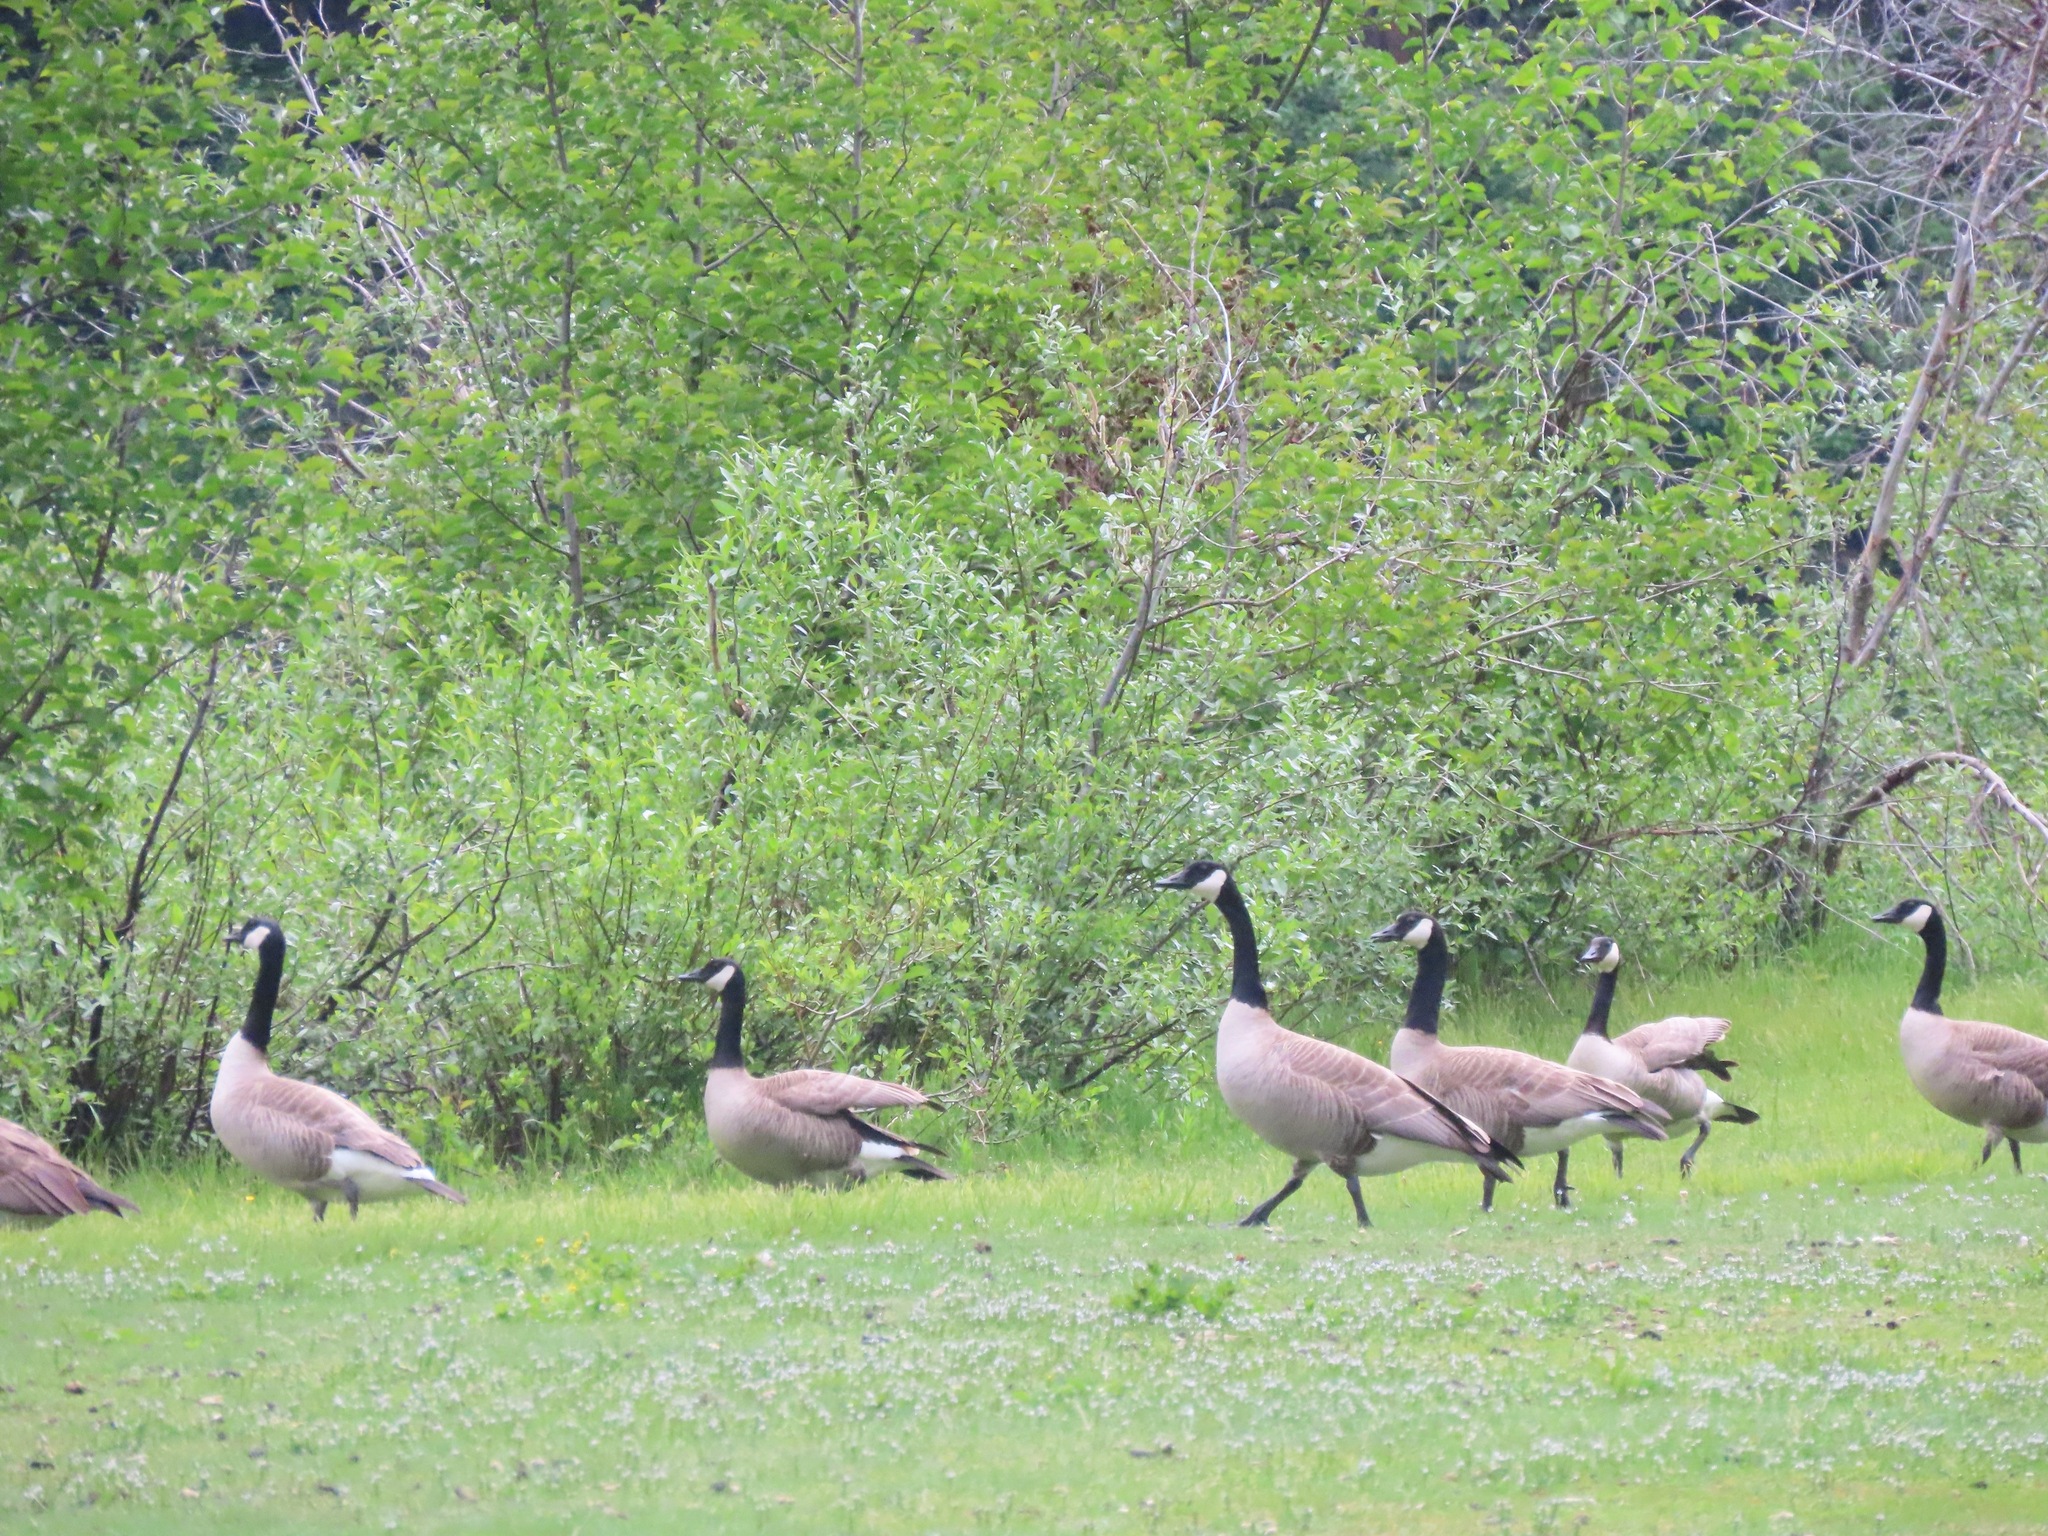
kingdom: Animalia
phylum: Chordata
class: Aves
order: Anseriformes
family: Anatidae
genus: Branta
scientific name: Branta canadensis
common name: Canada goose
